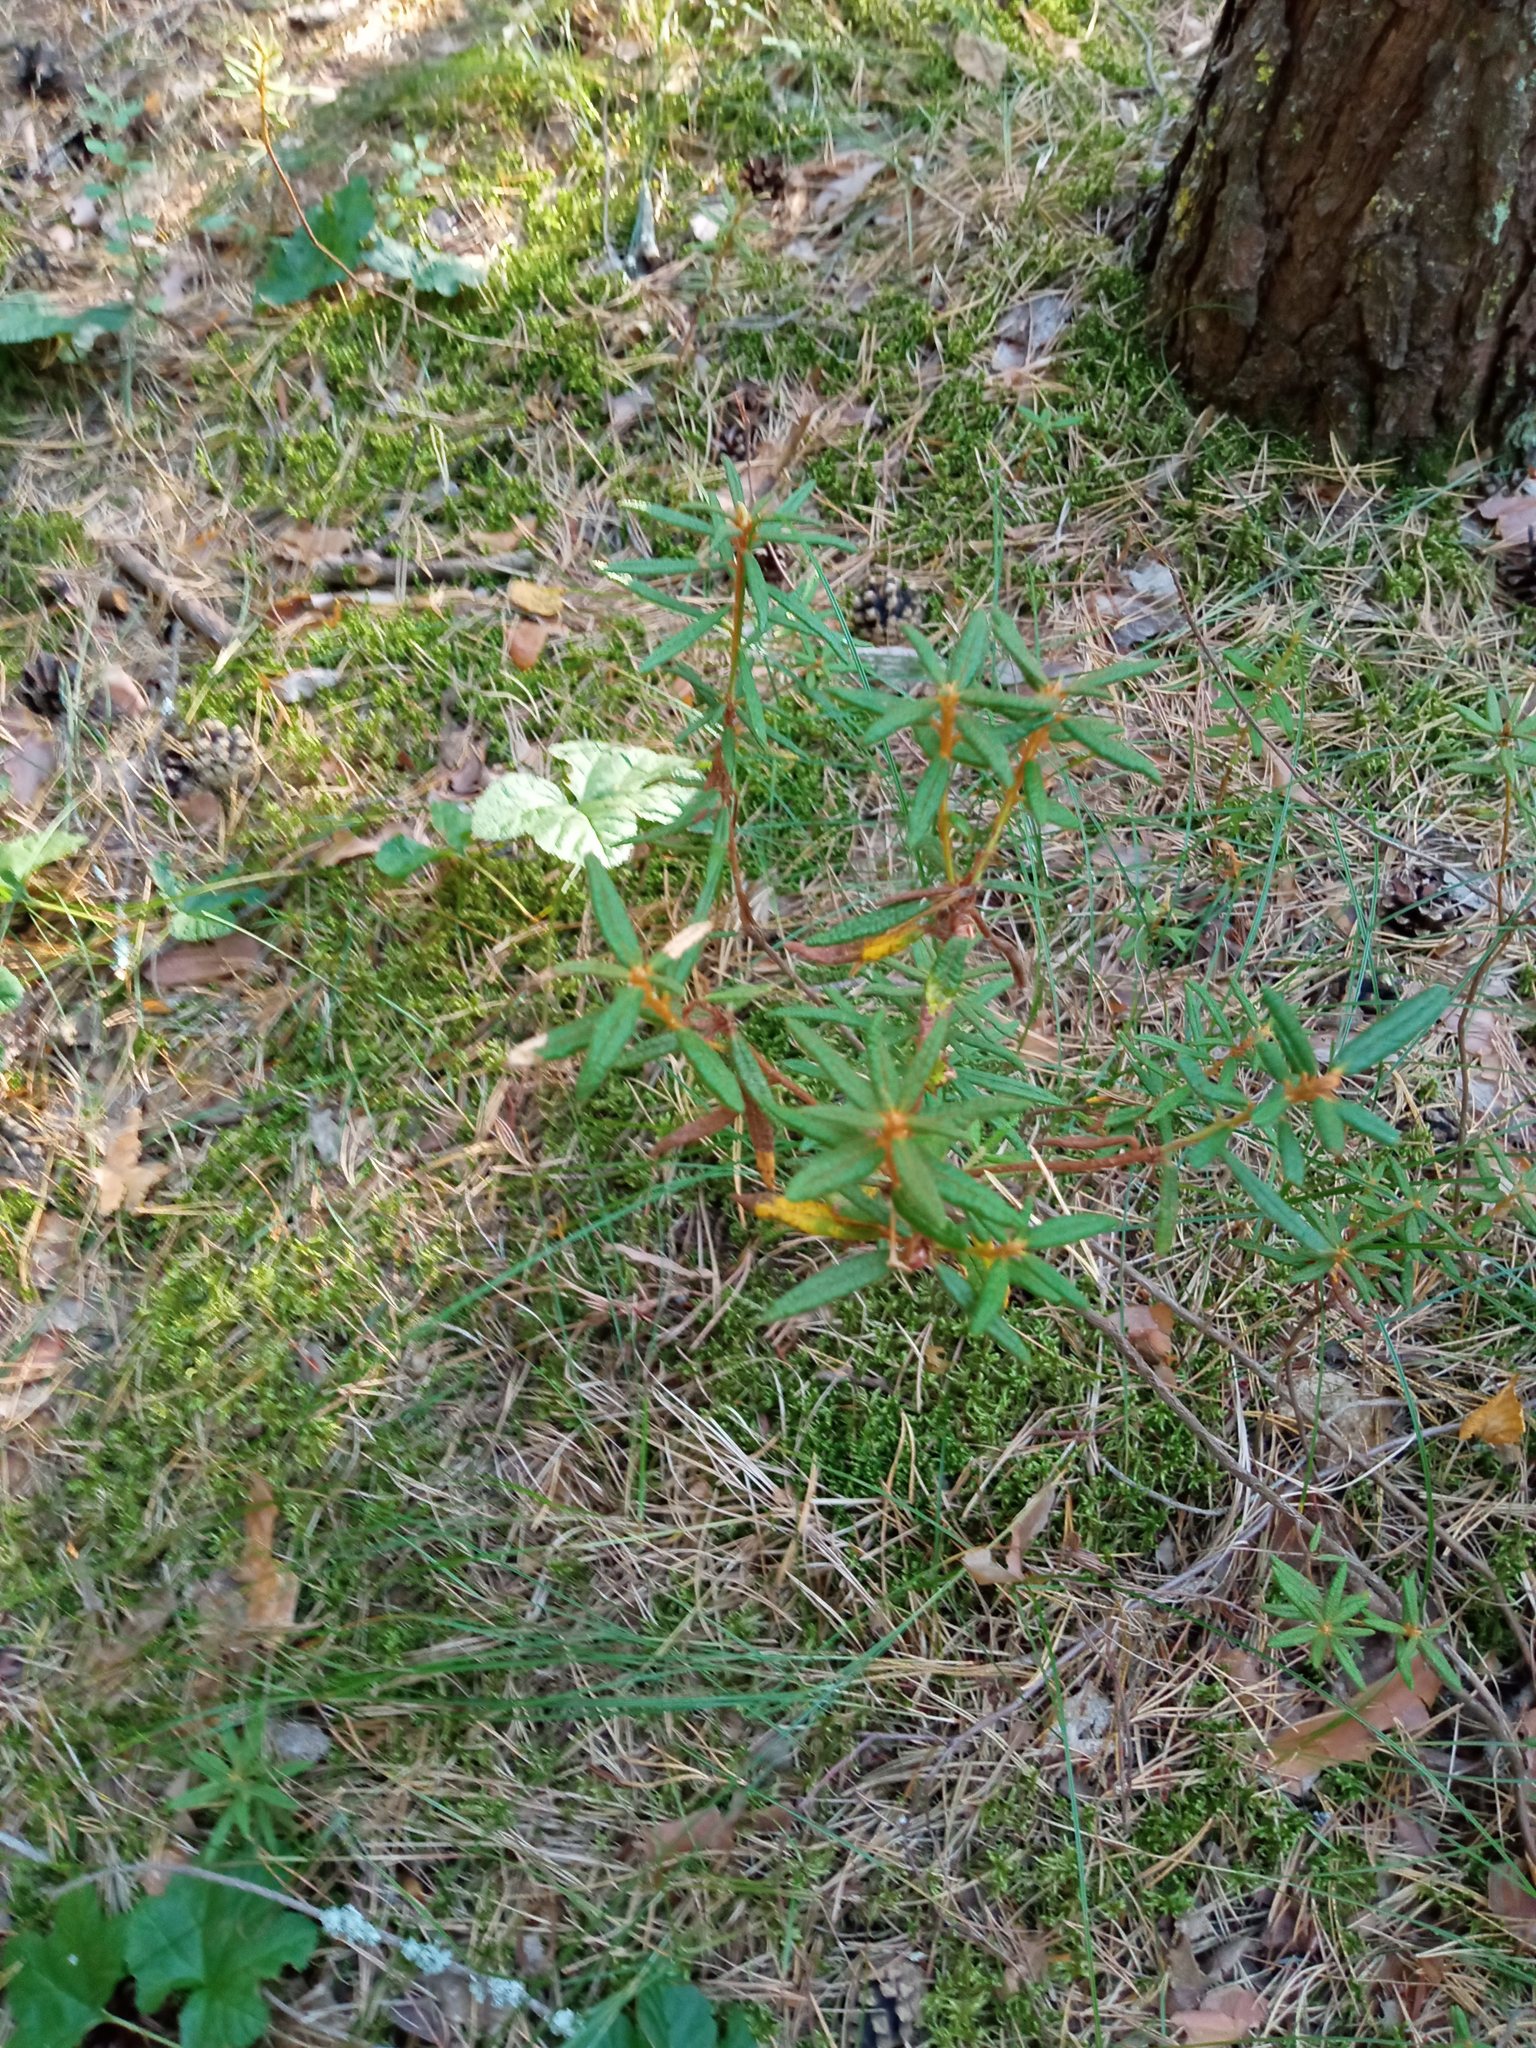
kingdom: Plantae
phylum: Tracheophyta
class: Magnoliopsida
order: Ericales
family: Ericaceae
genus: Rhododendron
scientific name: Rhododendron tomentosum
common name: Marsh labrador tea
